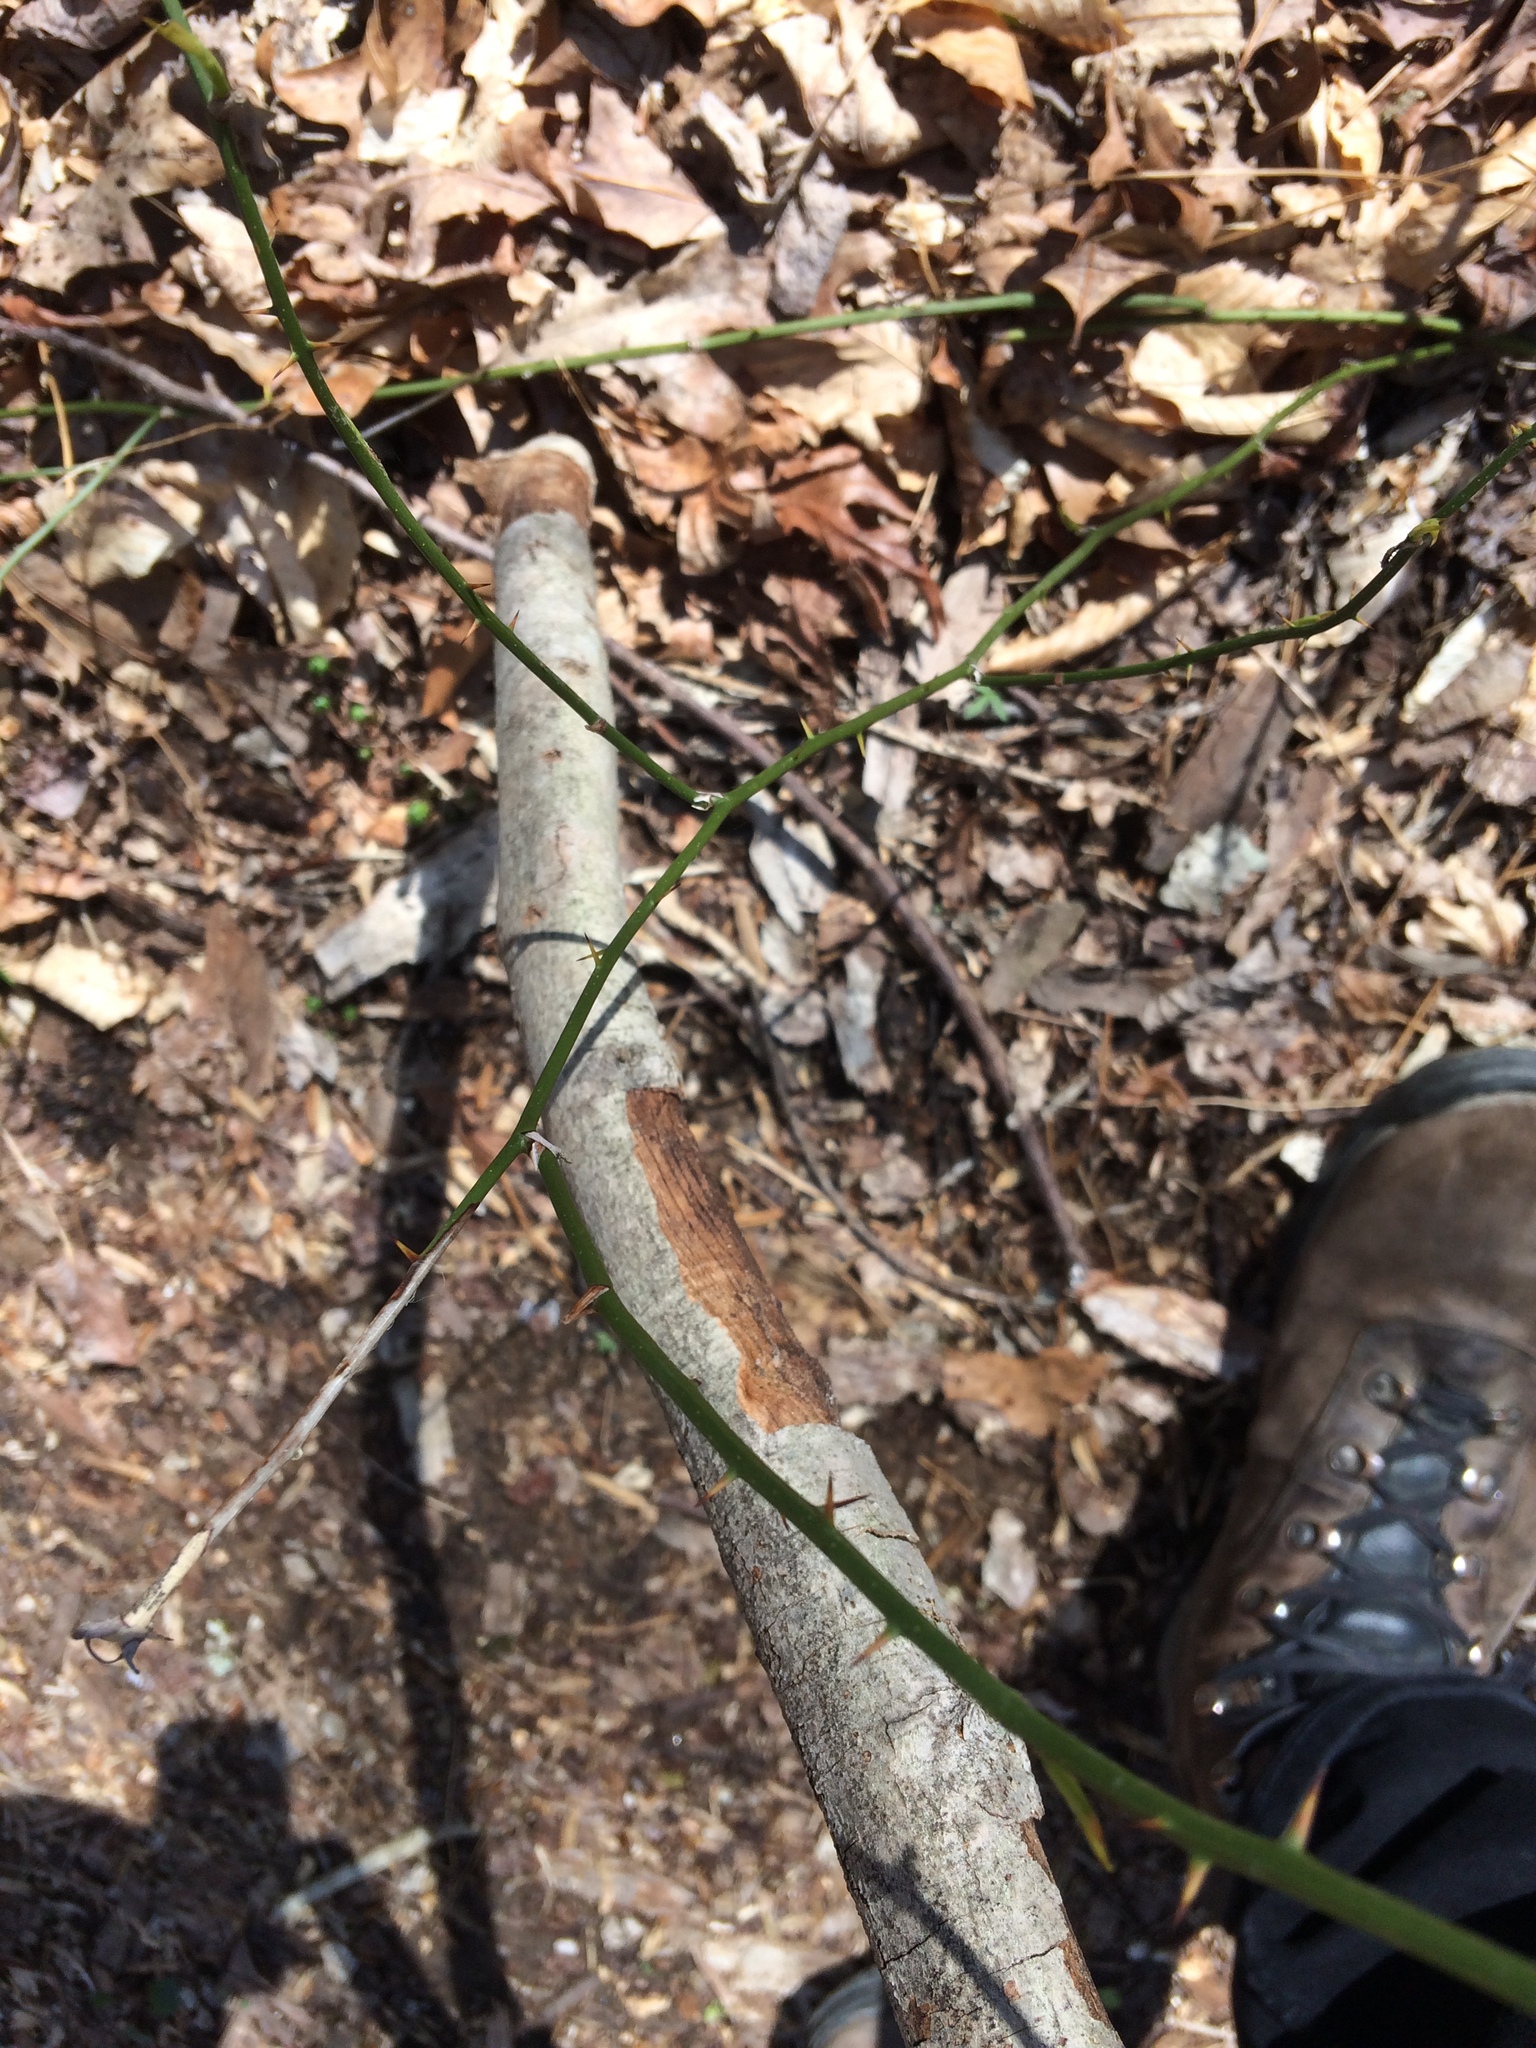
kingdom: Plantae
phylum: Tracheophyta
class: Liliopsida
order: Liliales
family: Smilacaceae
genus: Smilax
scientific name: Smilax rotundifolia
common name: Bullbriar
